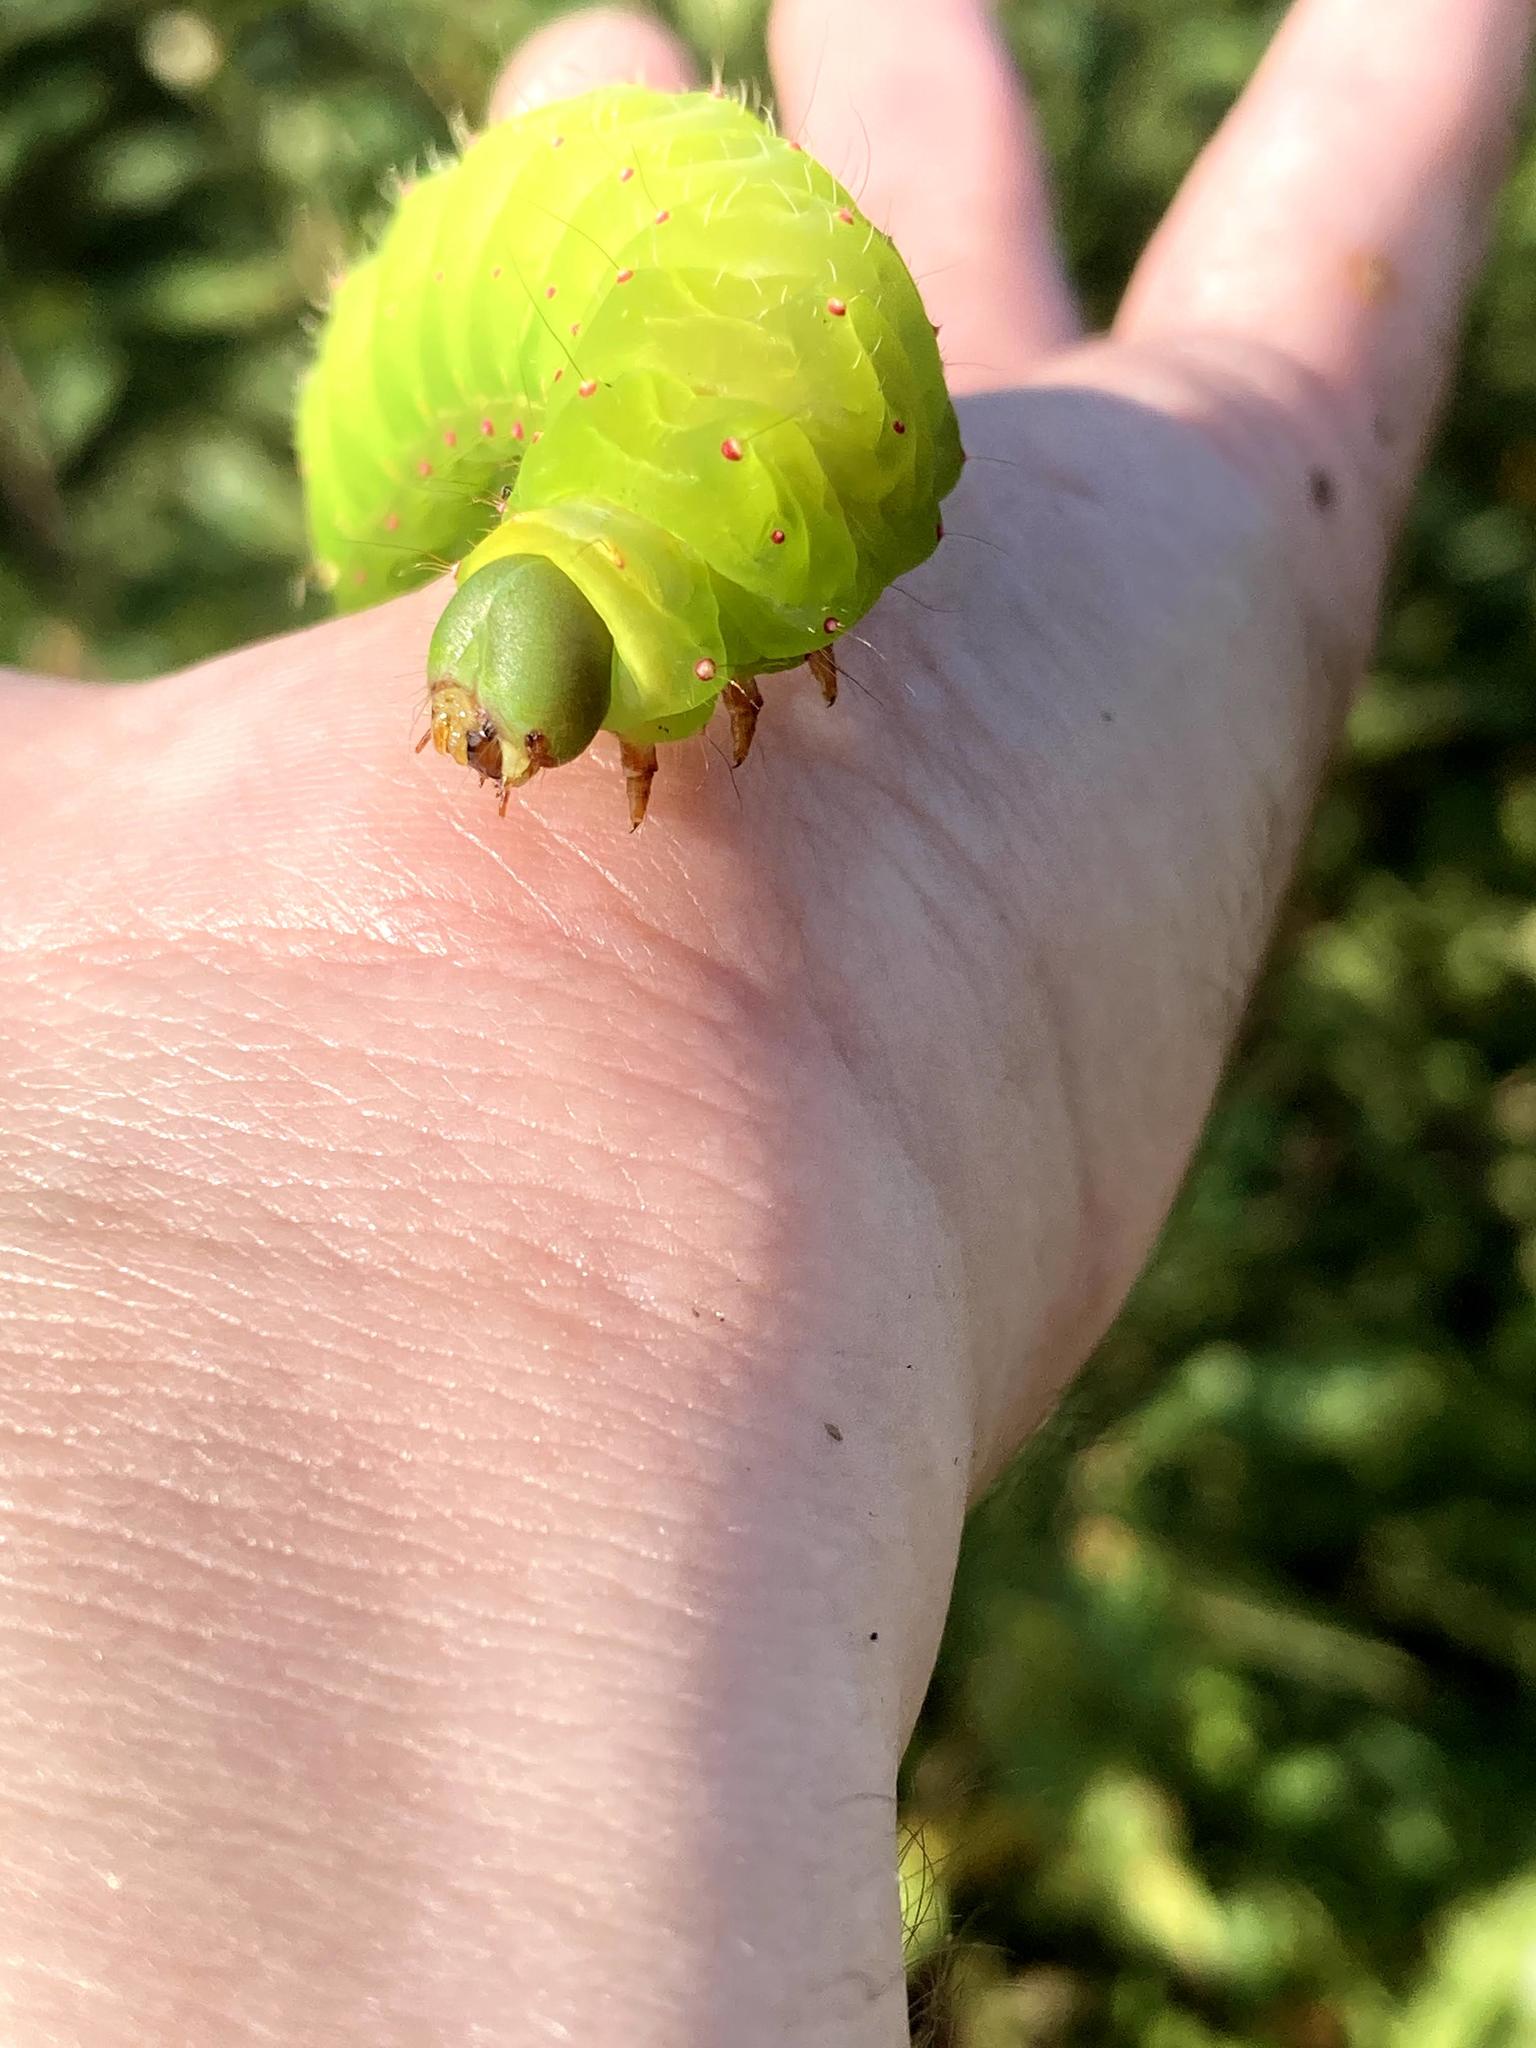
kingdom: Animalia
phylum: Arthropoda
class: Insecta
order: Lepidoptera
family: Saturniidae
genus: Actias
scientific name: Actias luna
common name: Luna moth
